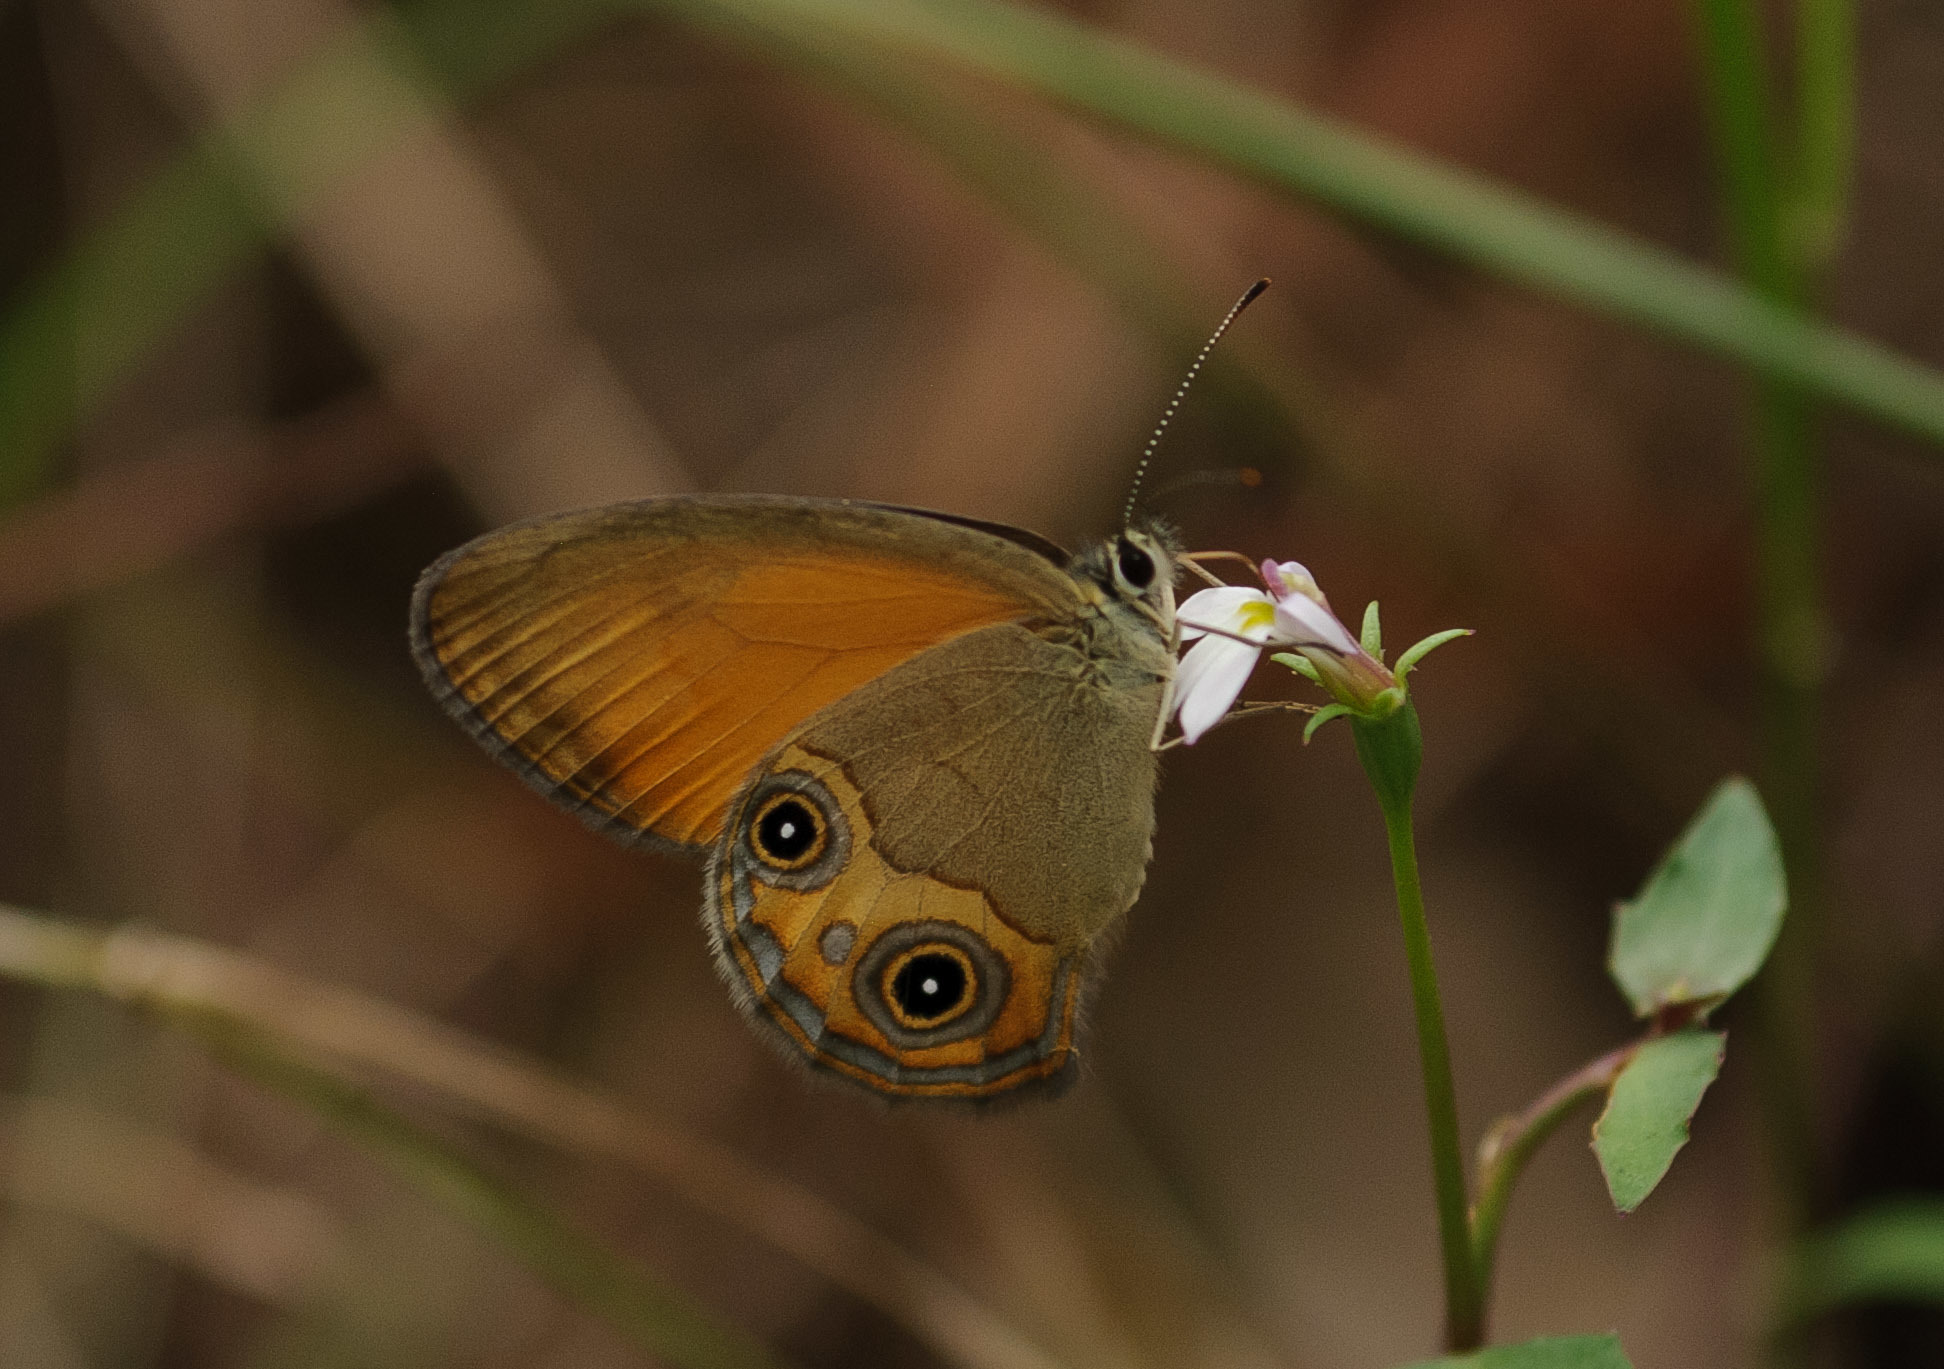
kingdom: Animalia
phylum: Arthropoda
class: Insecta
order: Lepidoptera
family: Nymphalidae
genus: Hypocysta
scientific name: Hypocysta adiante
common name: Orange ringlet
